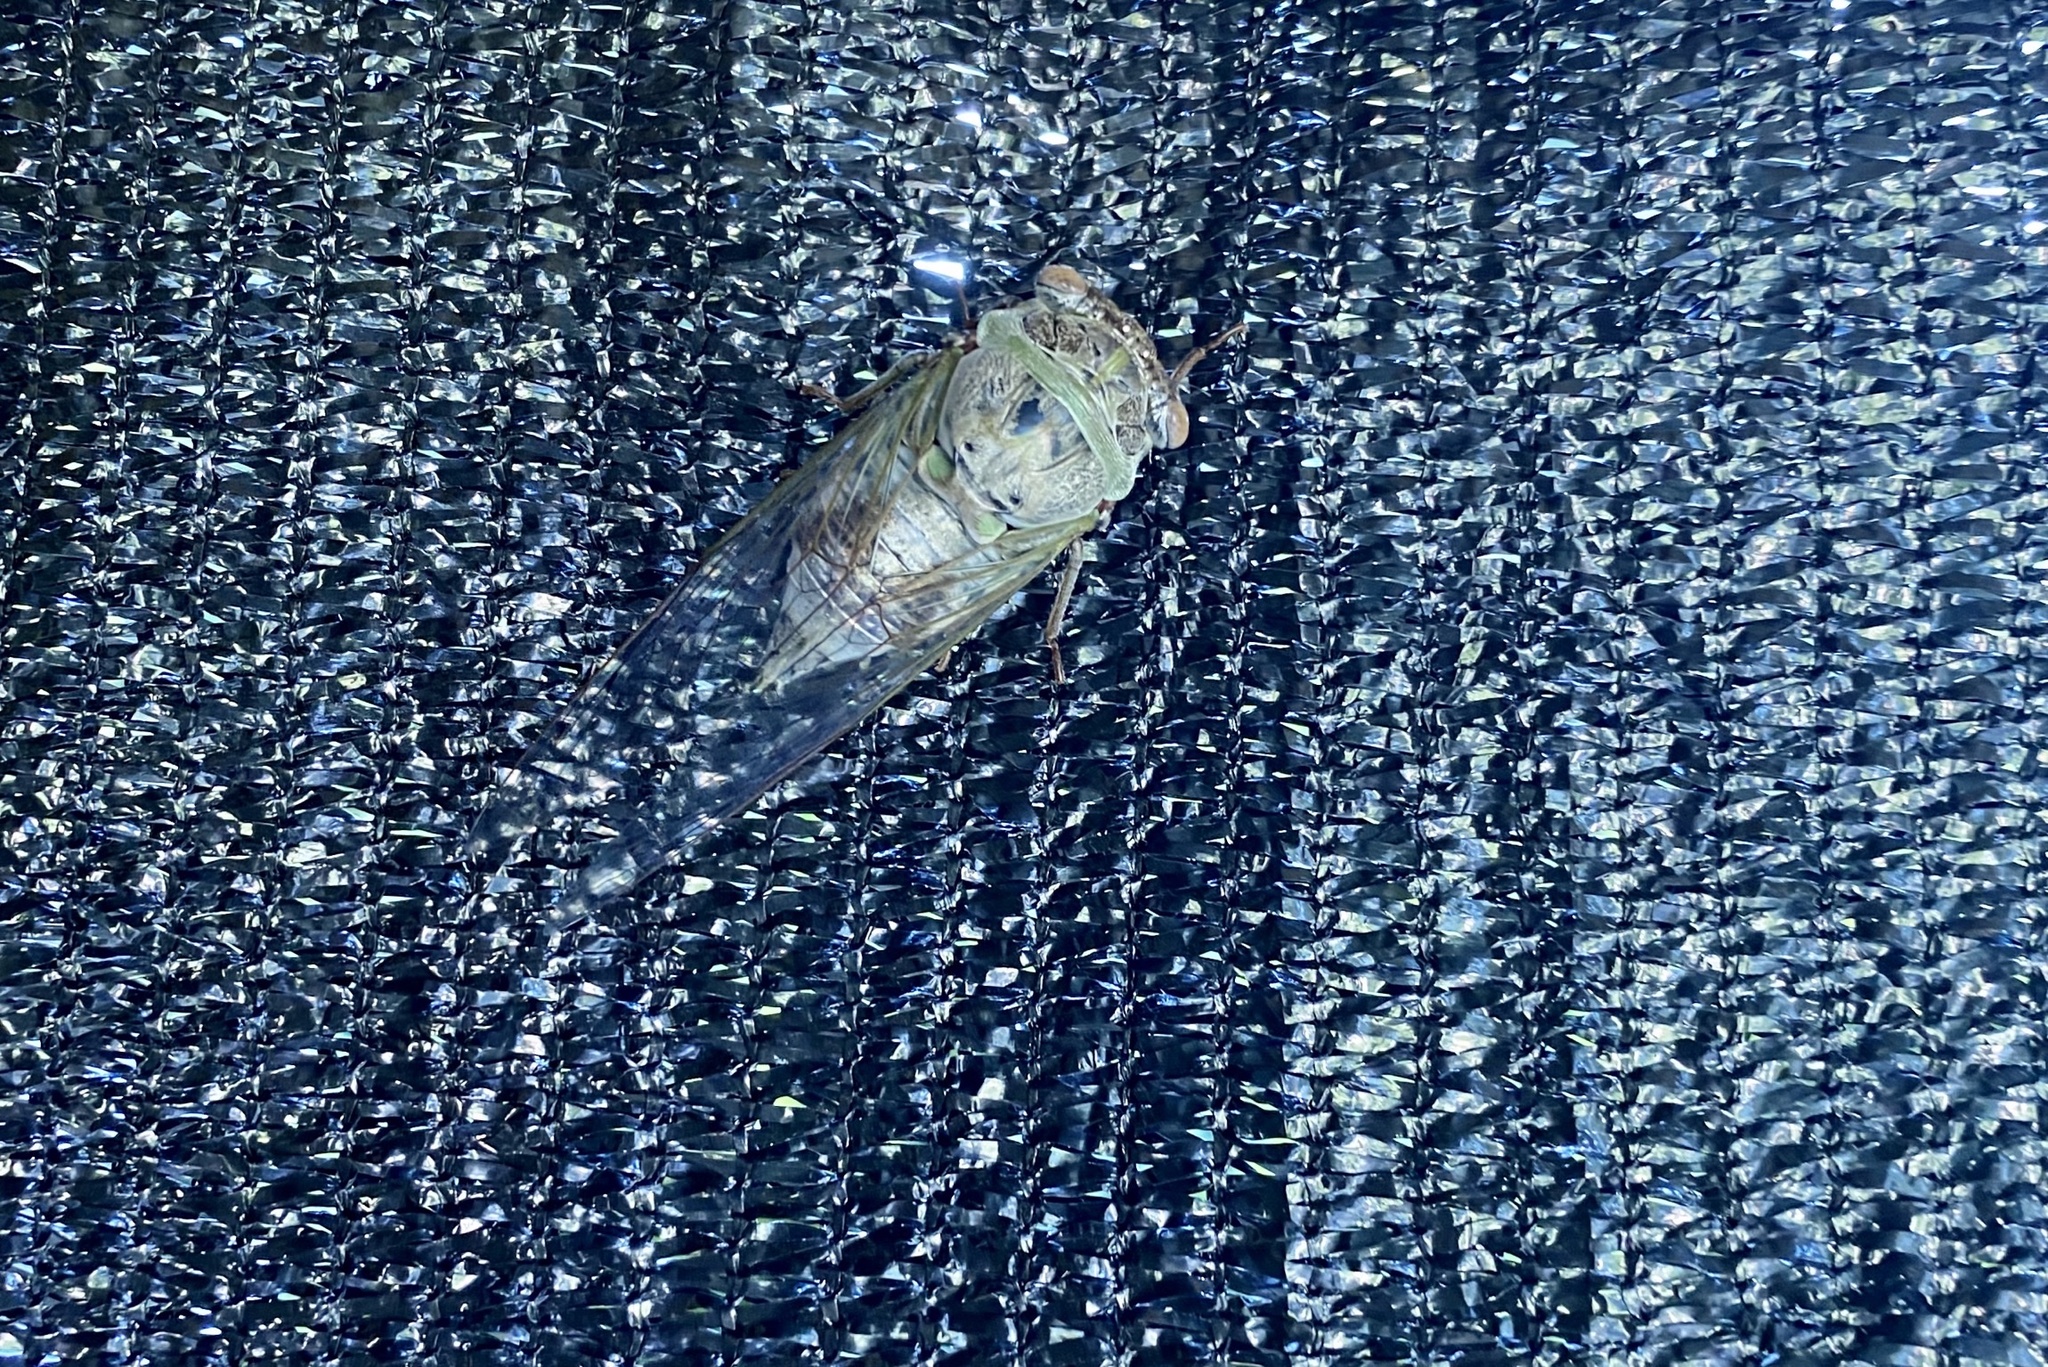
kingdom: Animalia
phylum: Arthropoda
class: Insecta
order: Hemiptera
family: Cicadidae
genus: Diceroprocta
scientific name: Diceroprocta grossa
